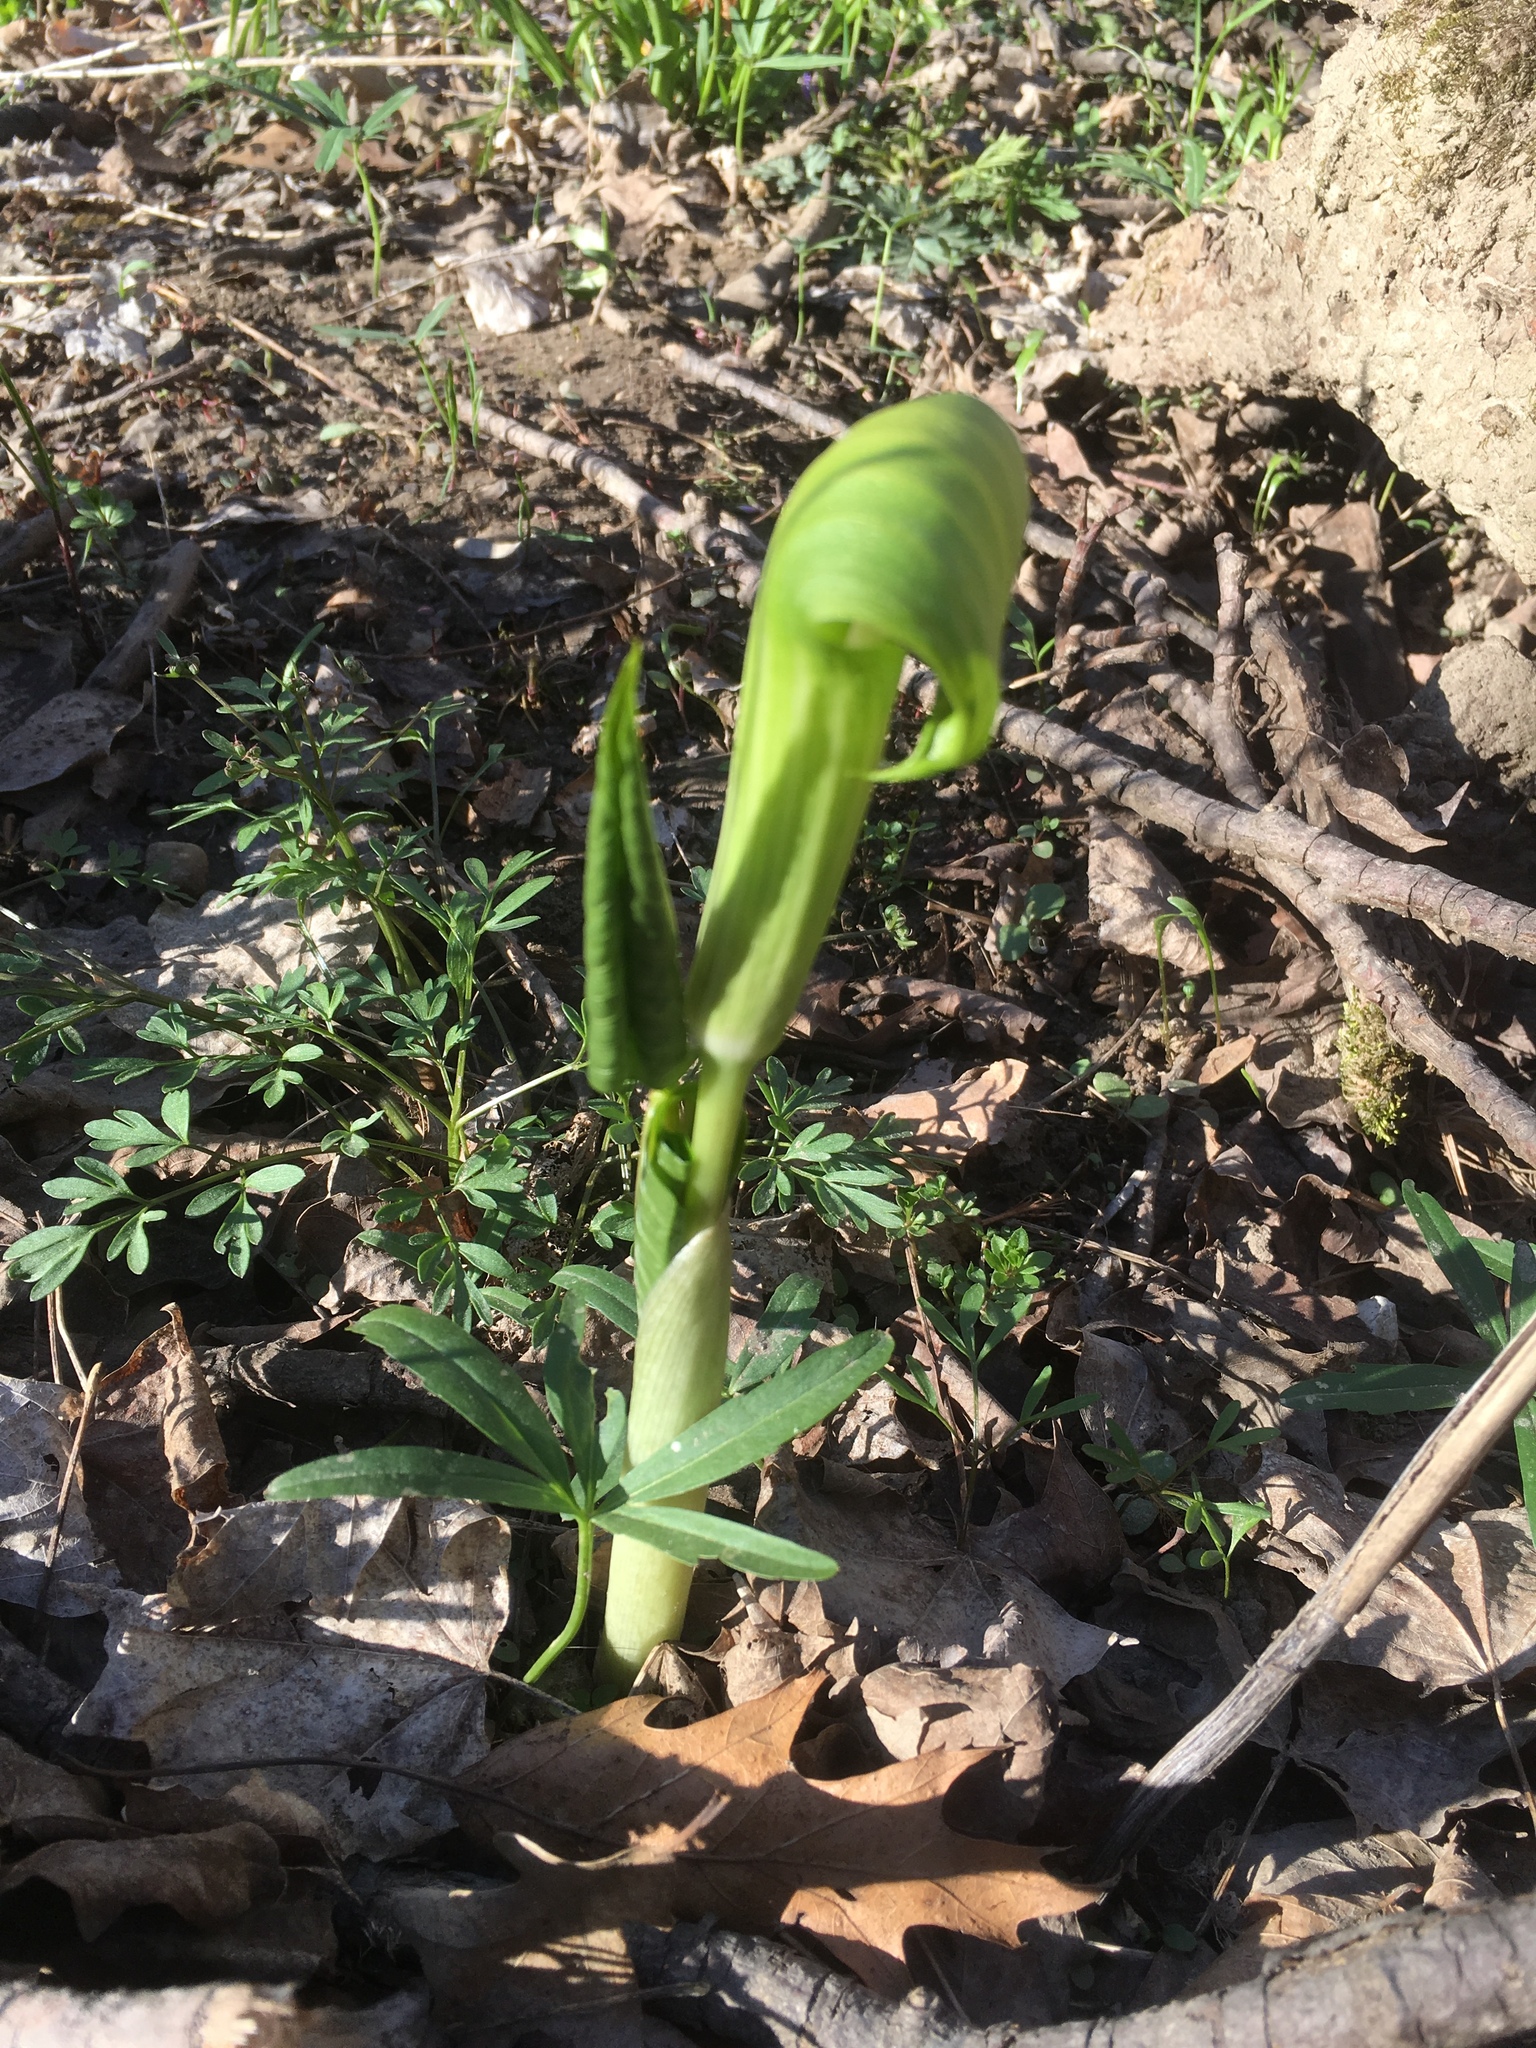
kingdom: Plantae
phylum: Tracheophyta
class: Liliopsida
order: Alismatales
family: Araceae
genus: Arisaema
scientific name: Arisaema triphyllum
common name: Jack-in-the-pulpit
